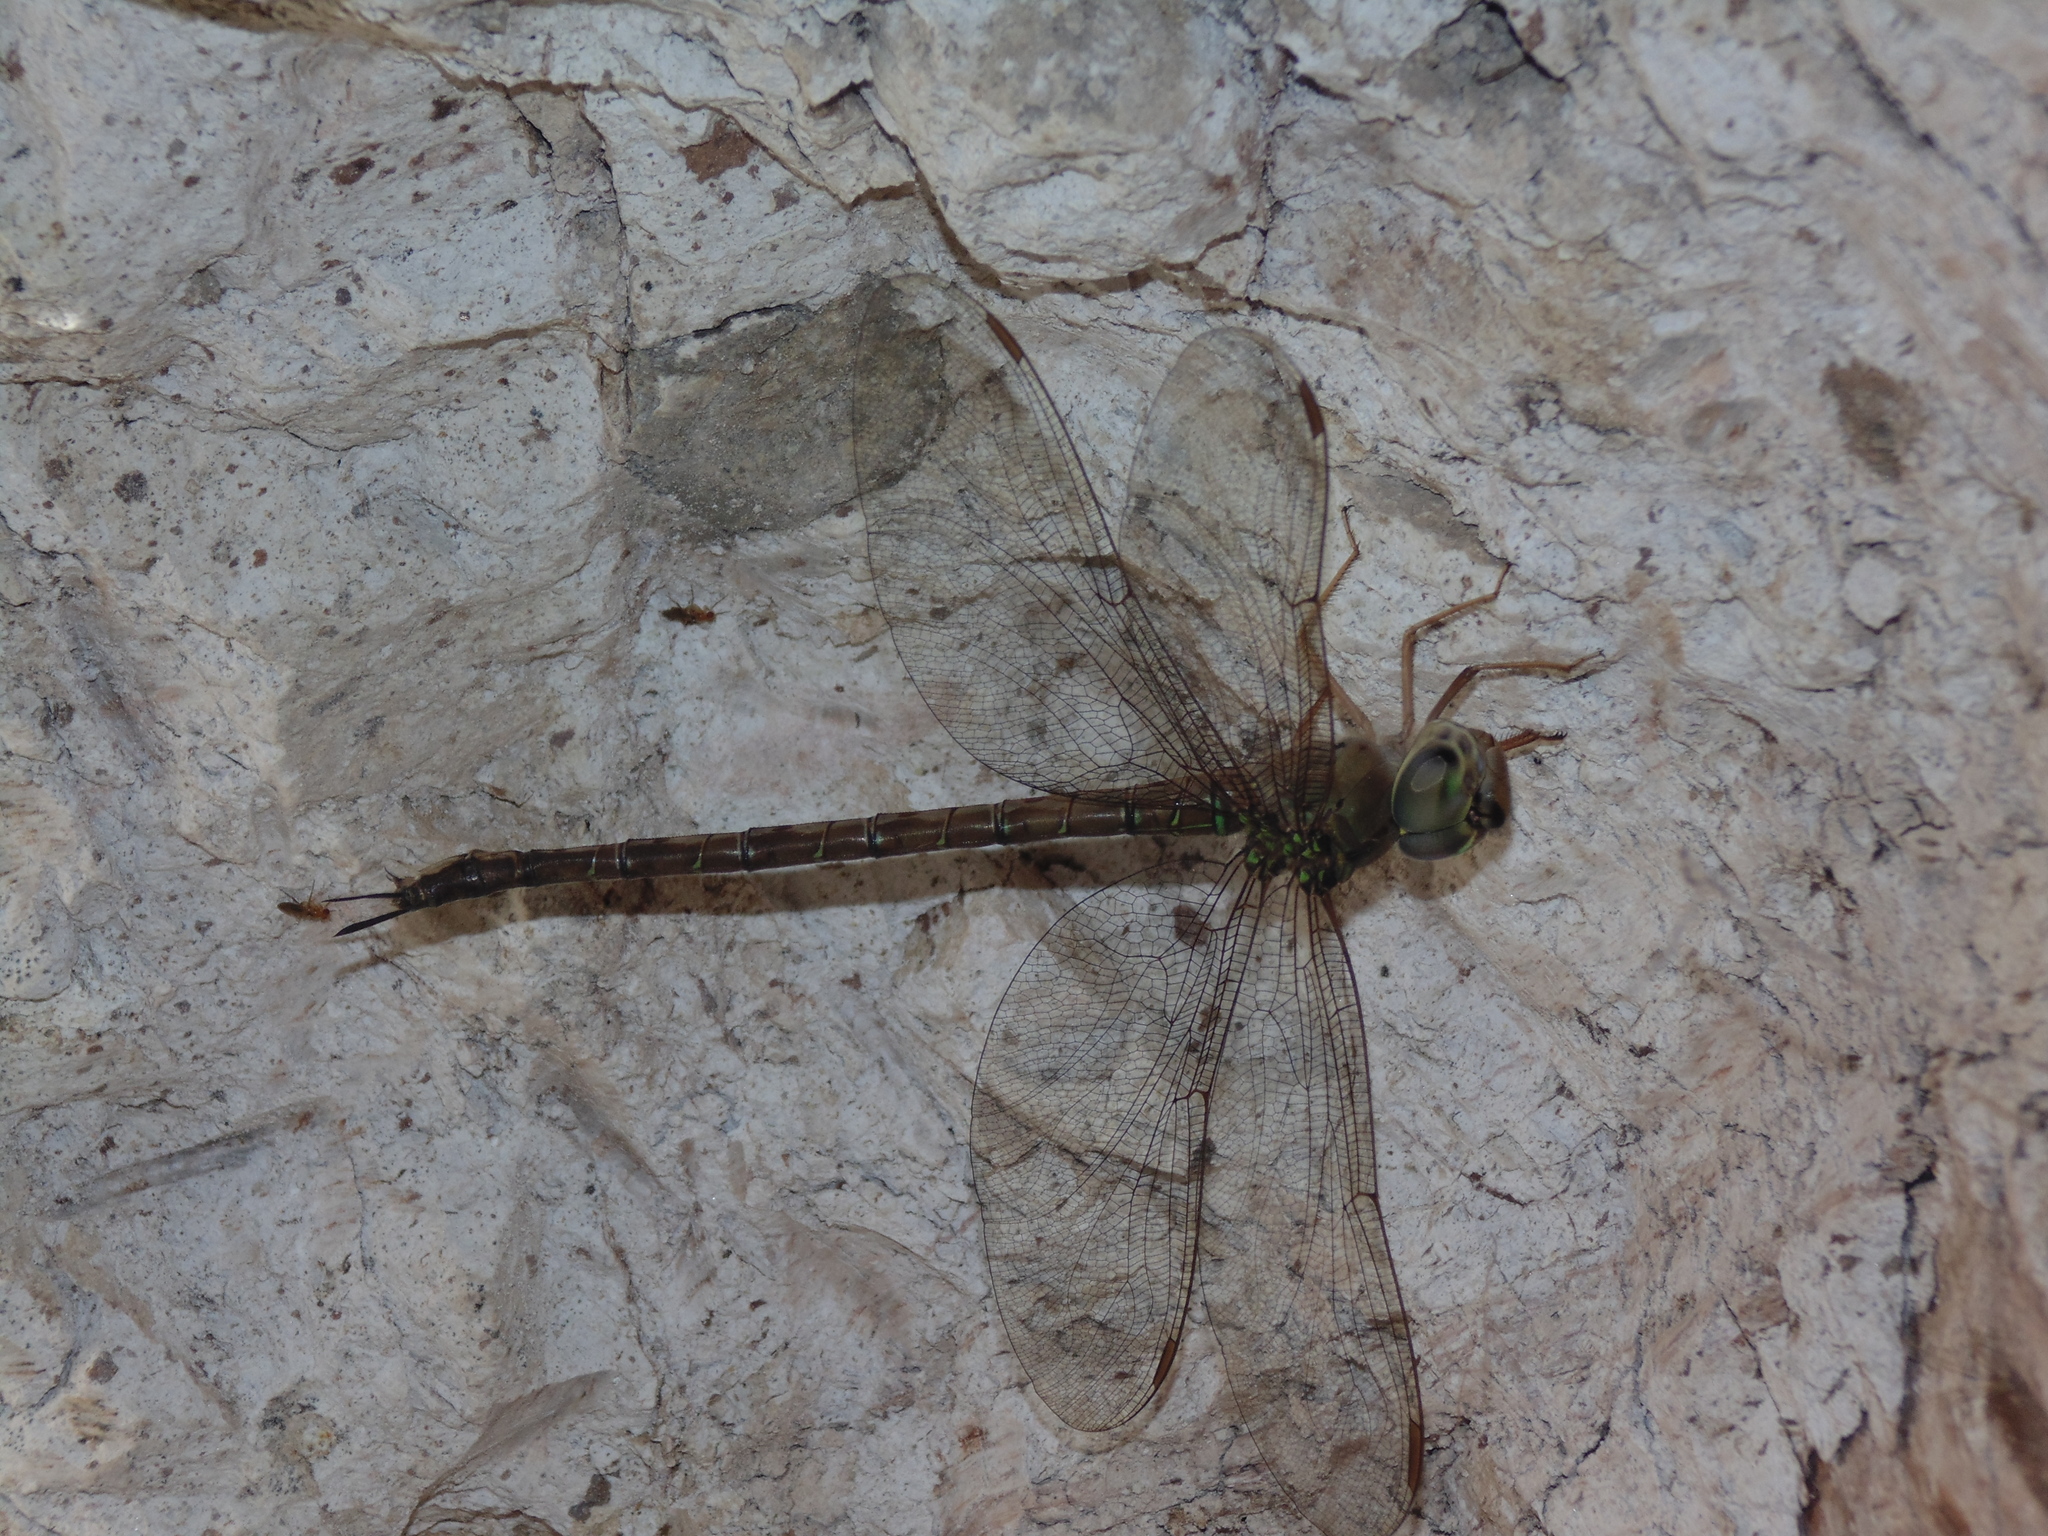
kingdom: Animalia
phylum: Arthropoda
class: Insecta
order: Odonata
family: Aeshnidae
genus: Gynacantha
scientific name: Gynacantha nervosa
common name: Twilight darner
